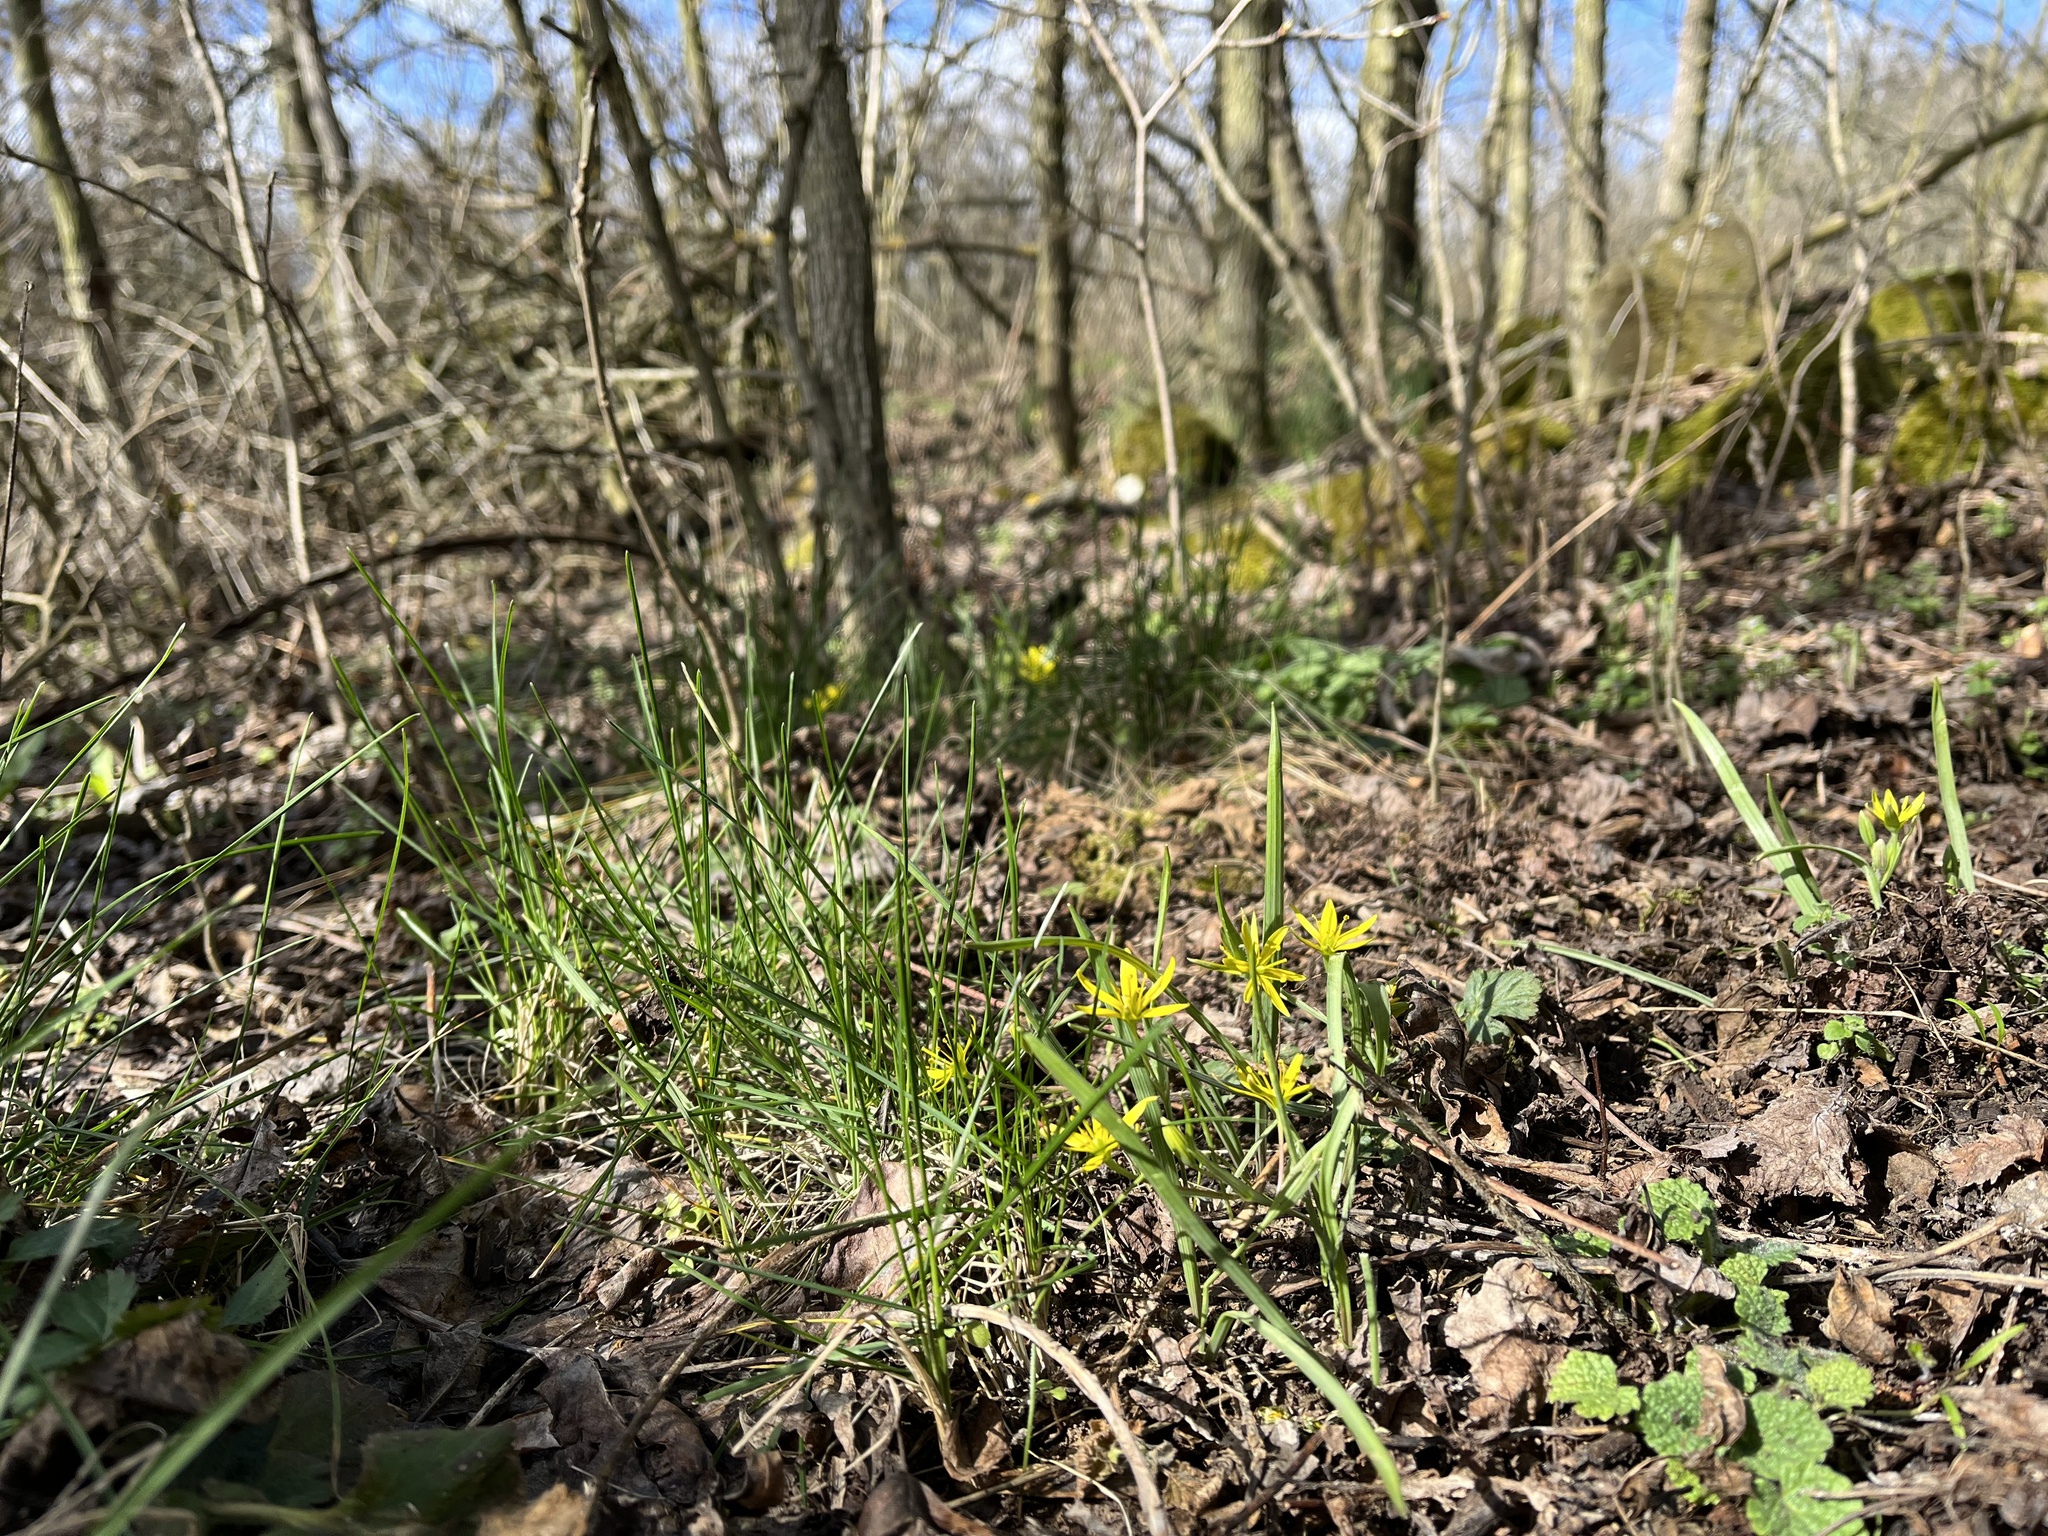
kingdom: Plantae
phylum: Tracheophyta
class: Liliopsida
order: Liliales
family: Liliaceae
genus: Gagea
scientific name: Gagea pratensis
